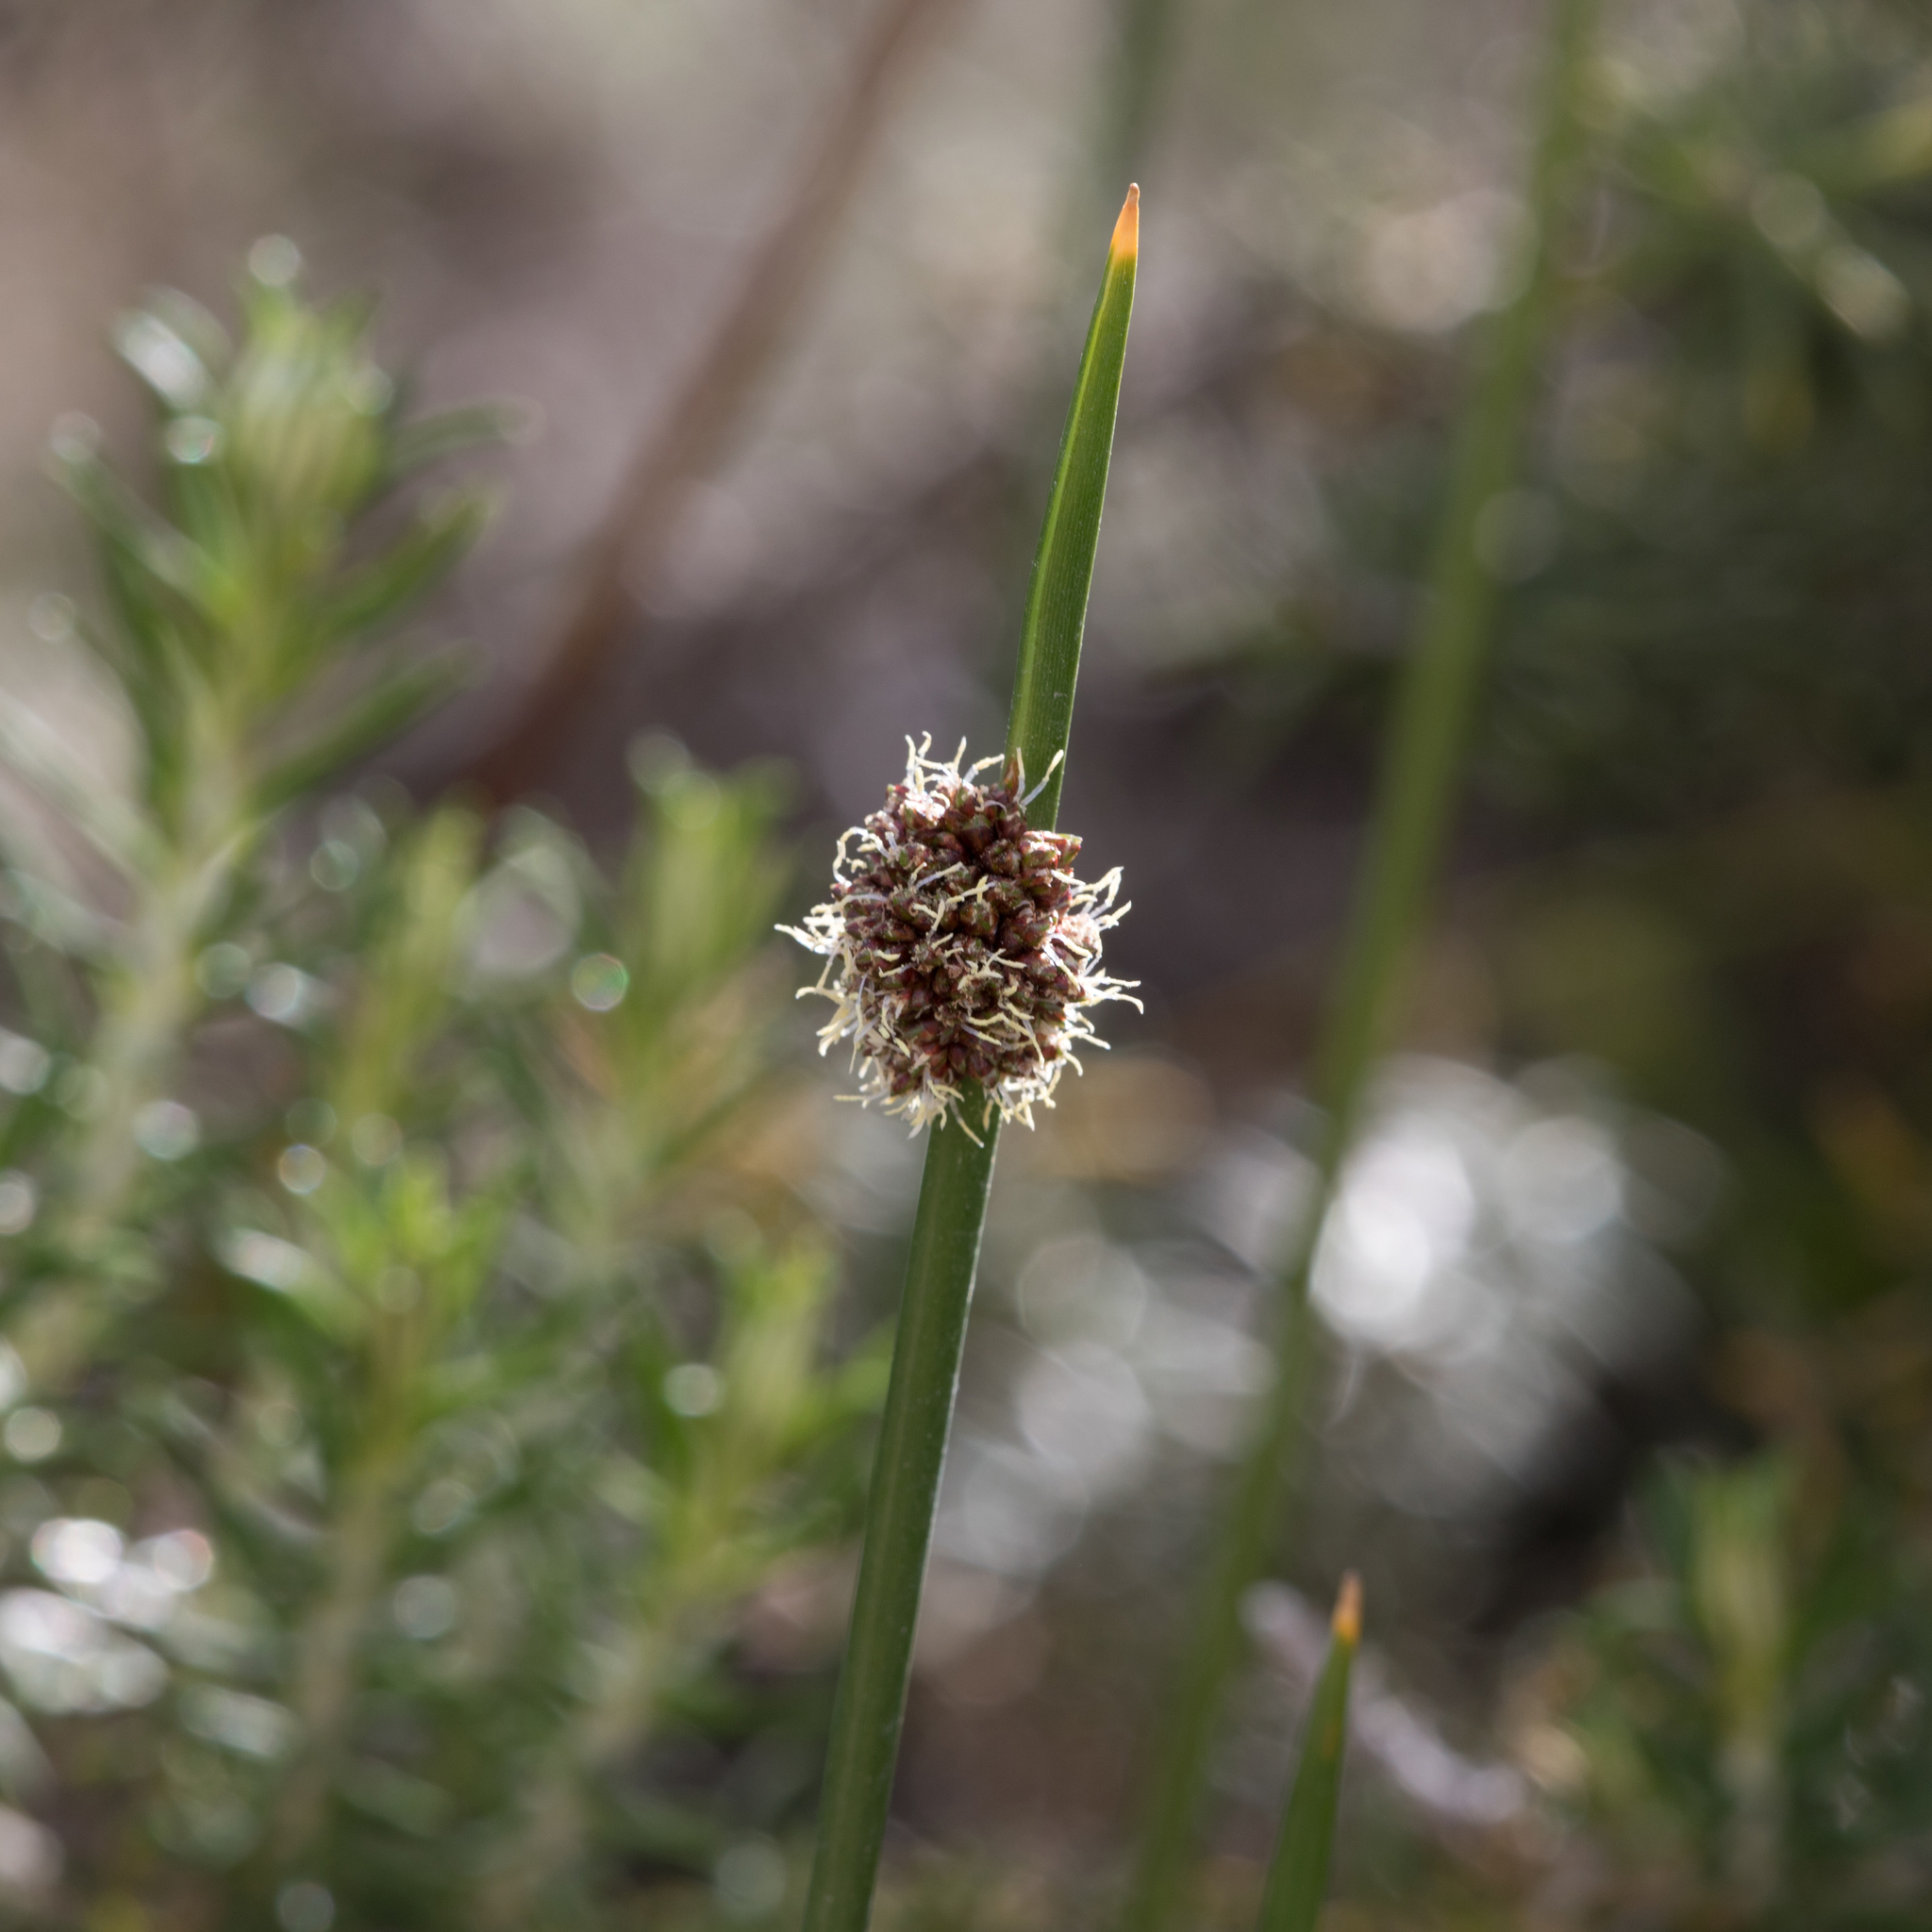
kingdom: Plantae
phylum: Tracheophyta
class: Liliopsida
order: Poales
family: Cyperaceae
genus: Ficinia
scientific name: Ficinia nodosa
